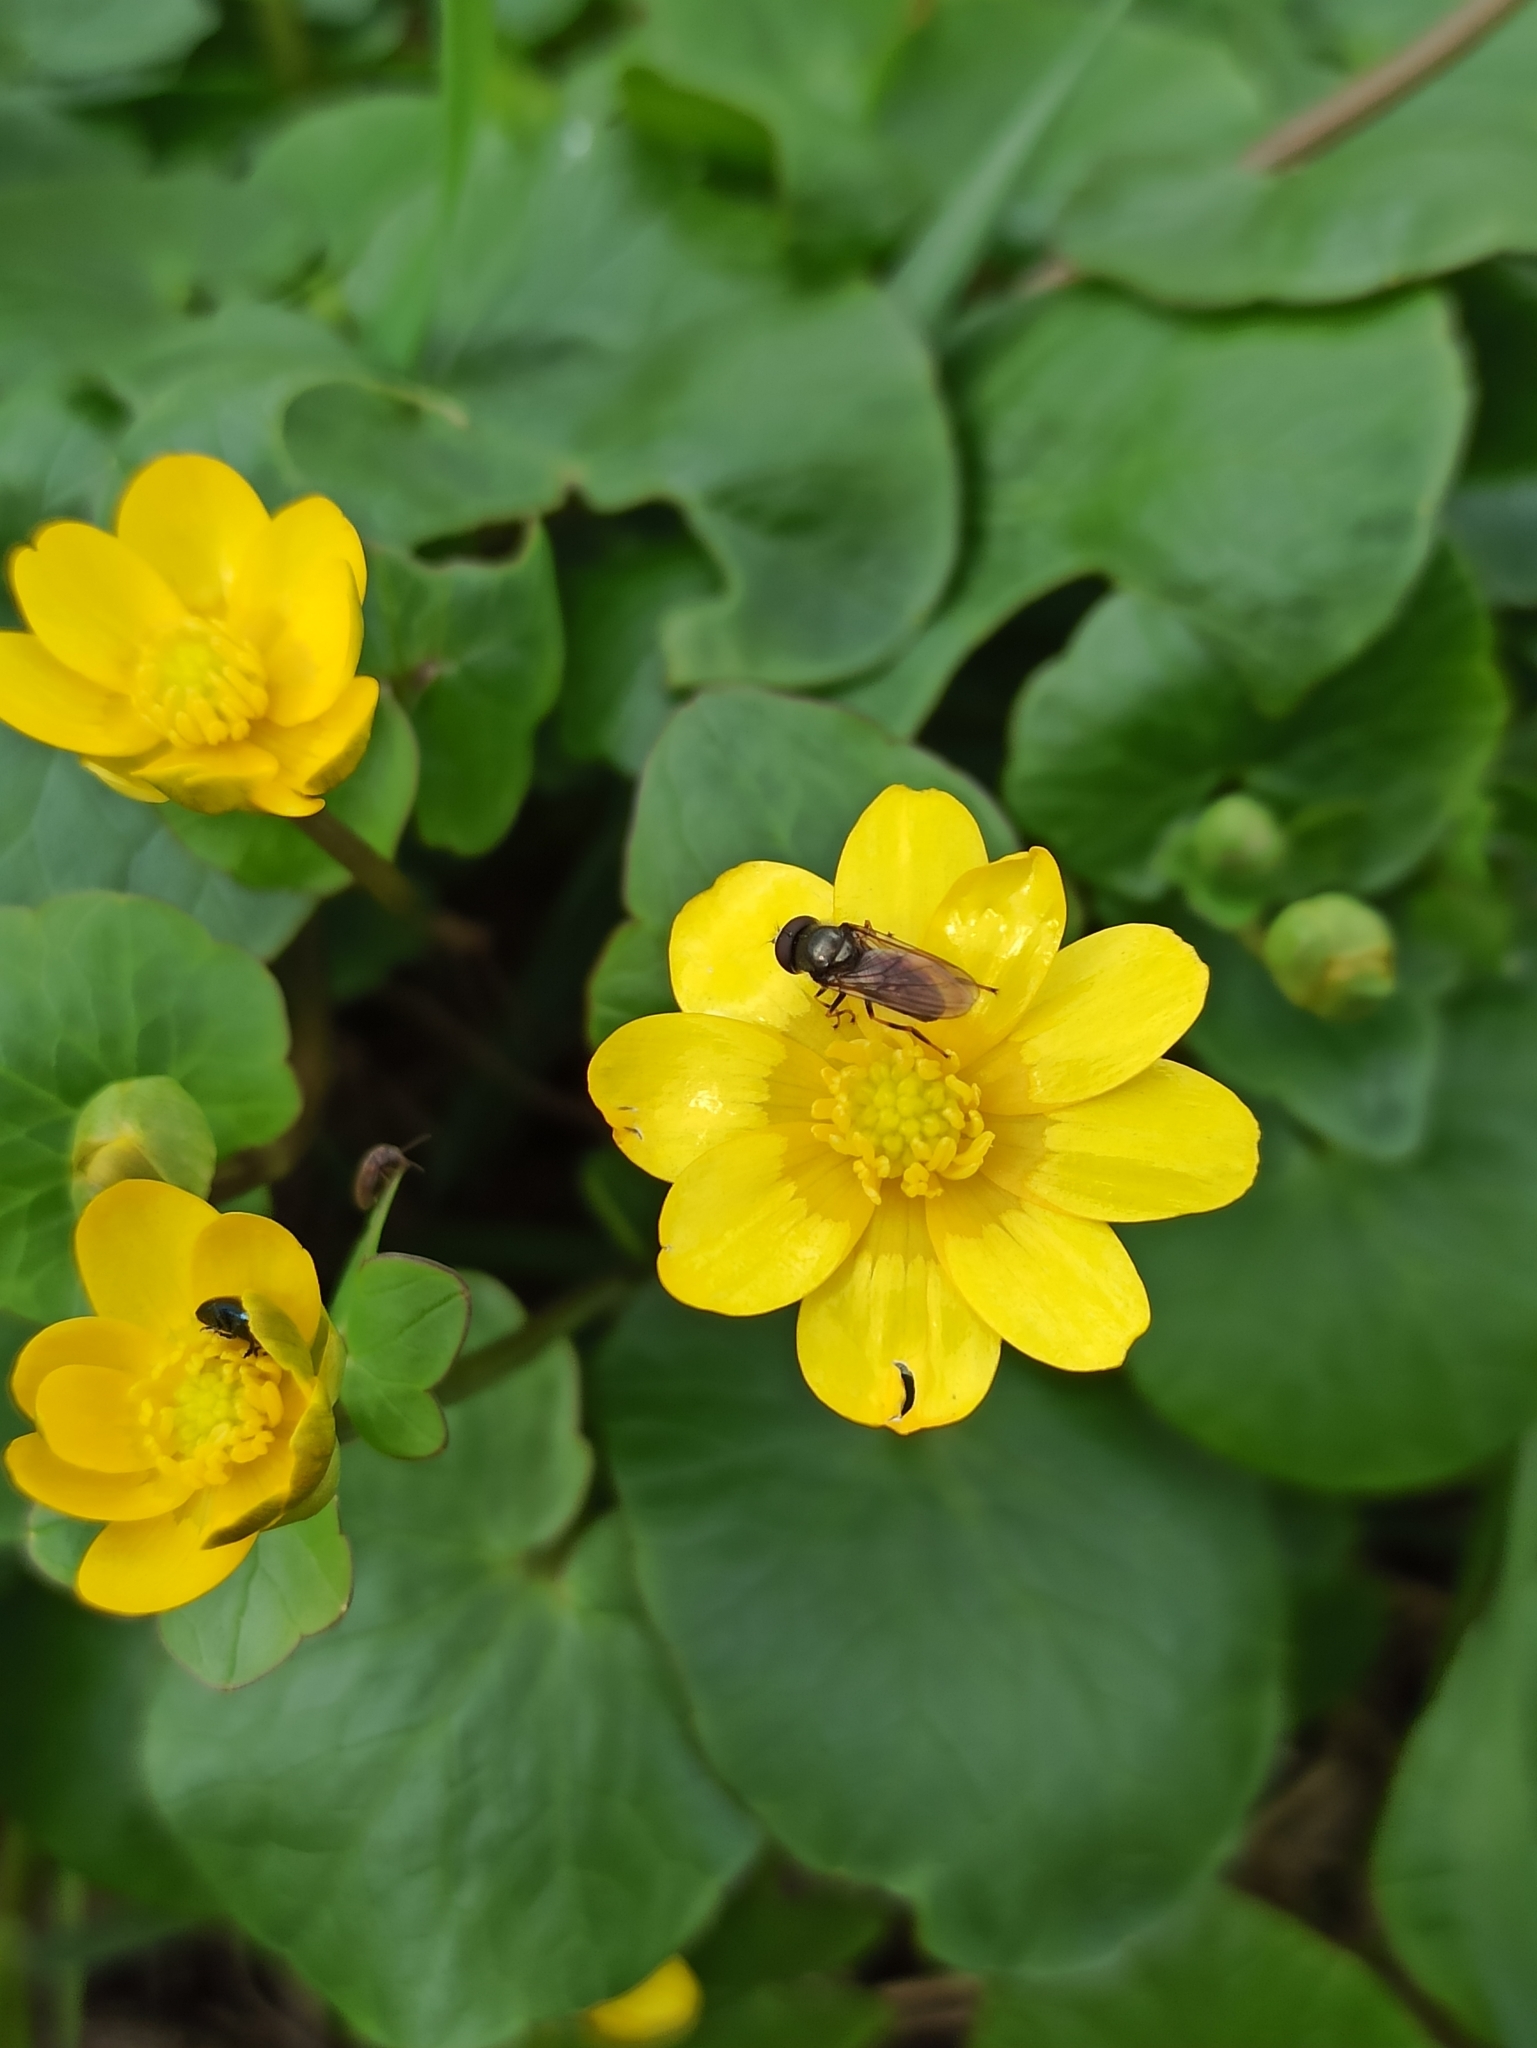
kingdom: Plantae
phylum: Tracheophyta
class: Magnoliopsida
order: Ranunculales
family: Ranunculaceae
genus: Ficaria
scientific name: Ficaria verna
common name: Lesser celandine
